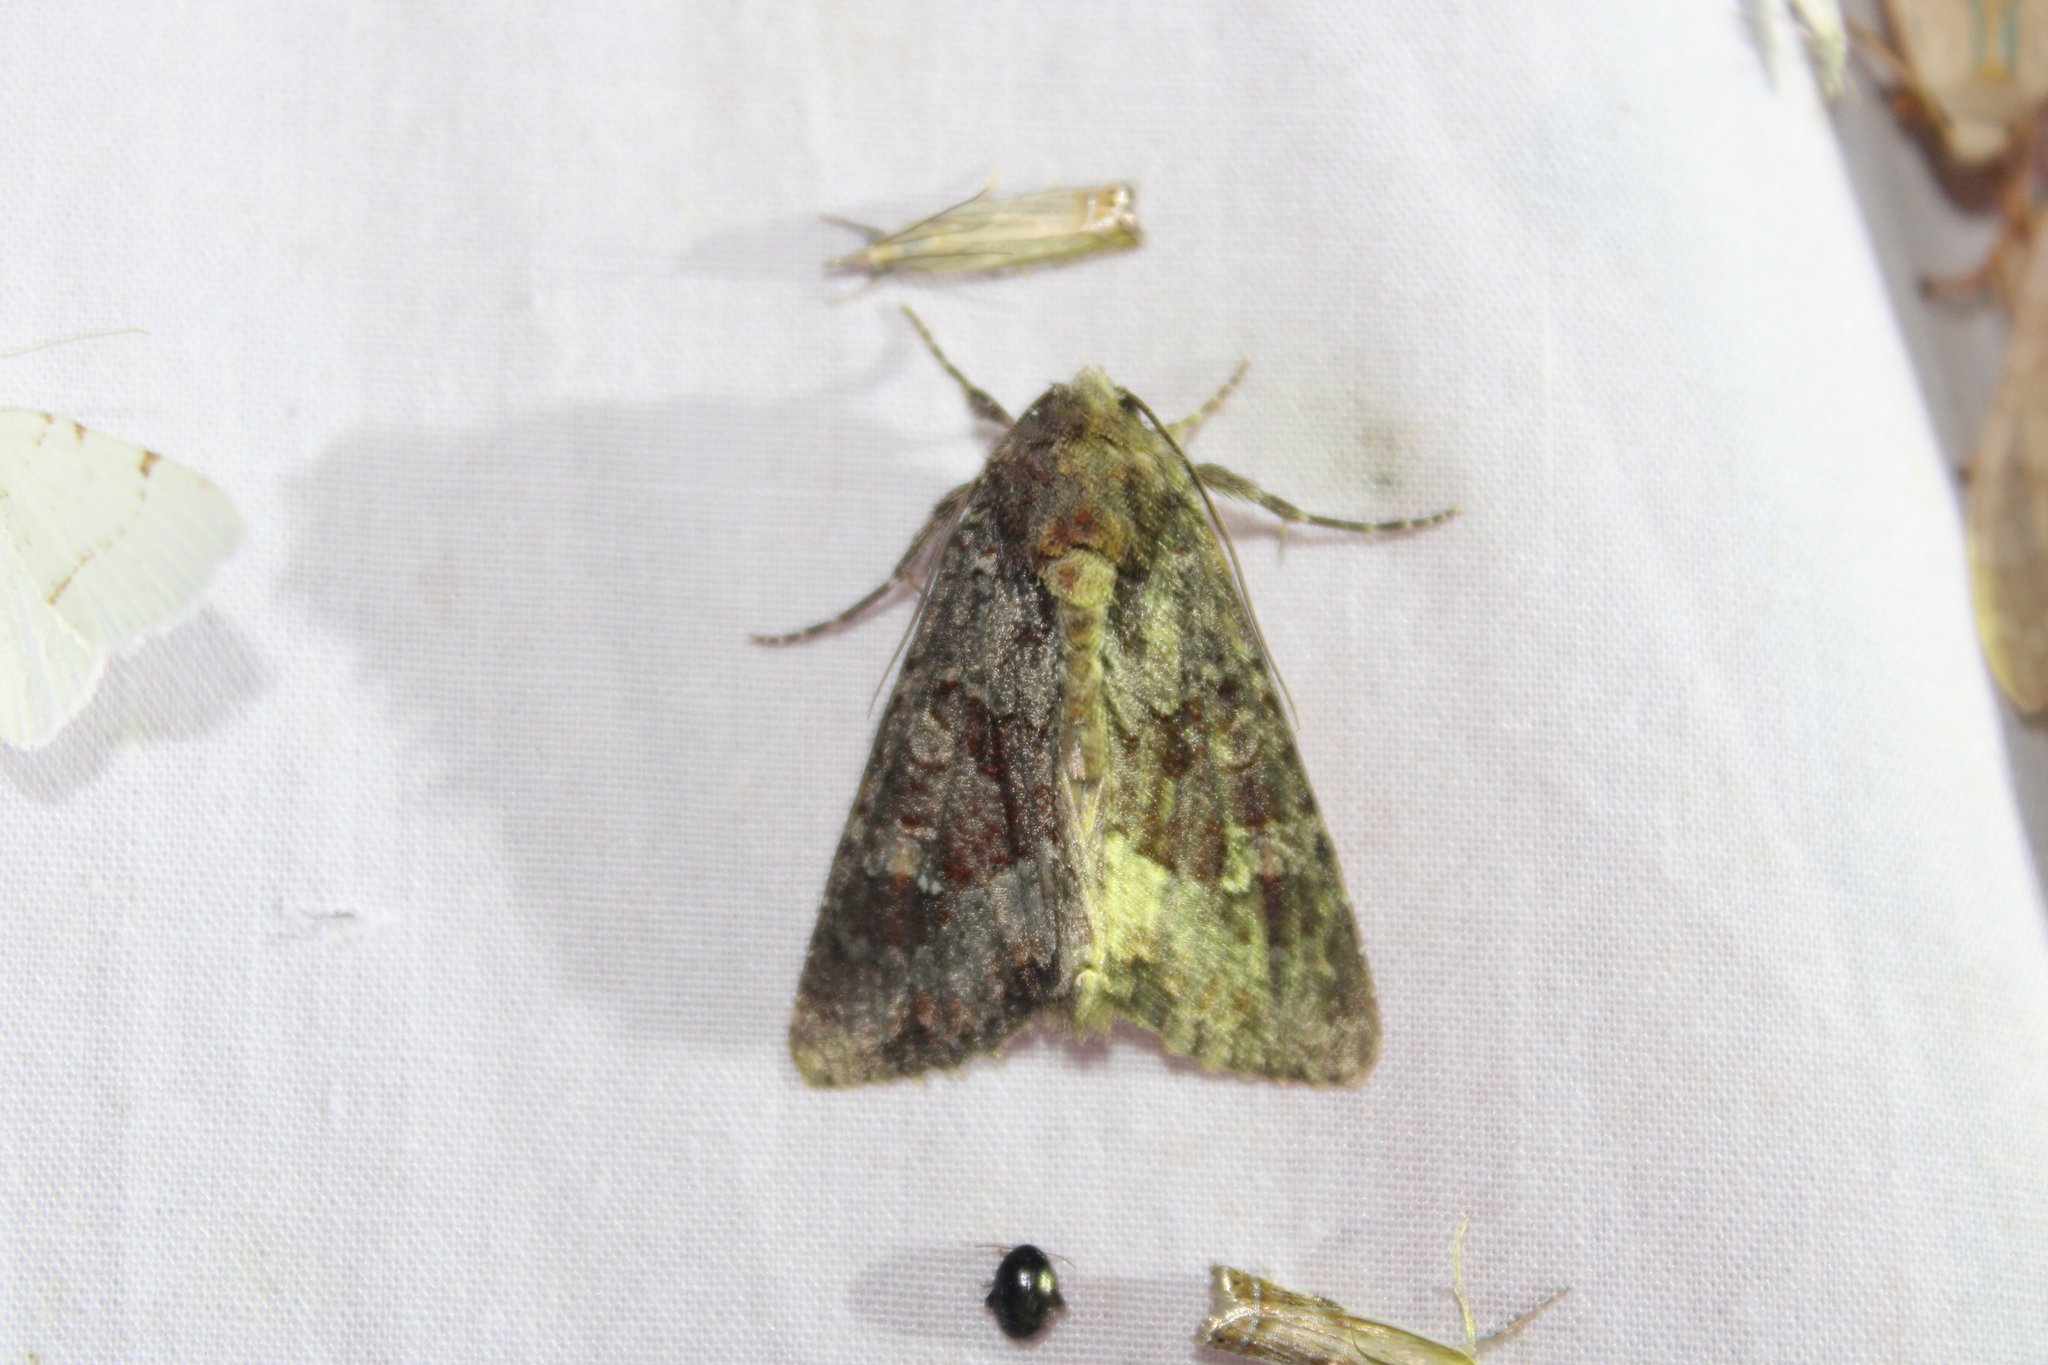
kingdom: Animalia
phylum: Arthropoda
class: Insecta
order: Lepidoptera
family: Noctuidae
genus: Apamea
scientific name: Apamea amputatrix
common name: Yellow-headed cutworm moth
